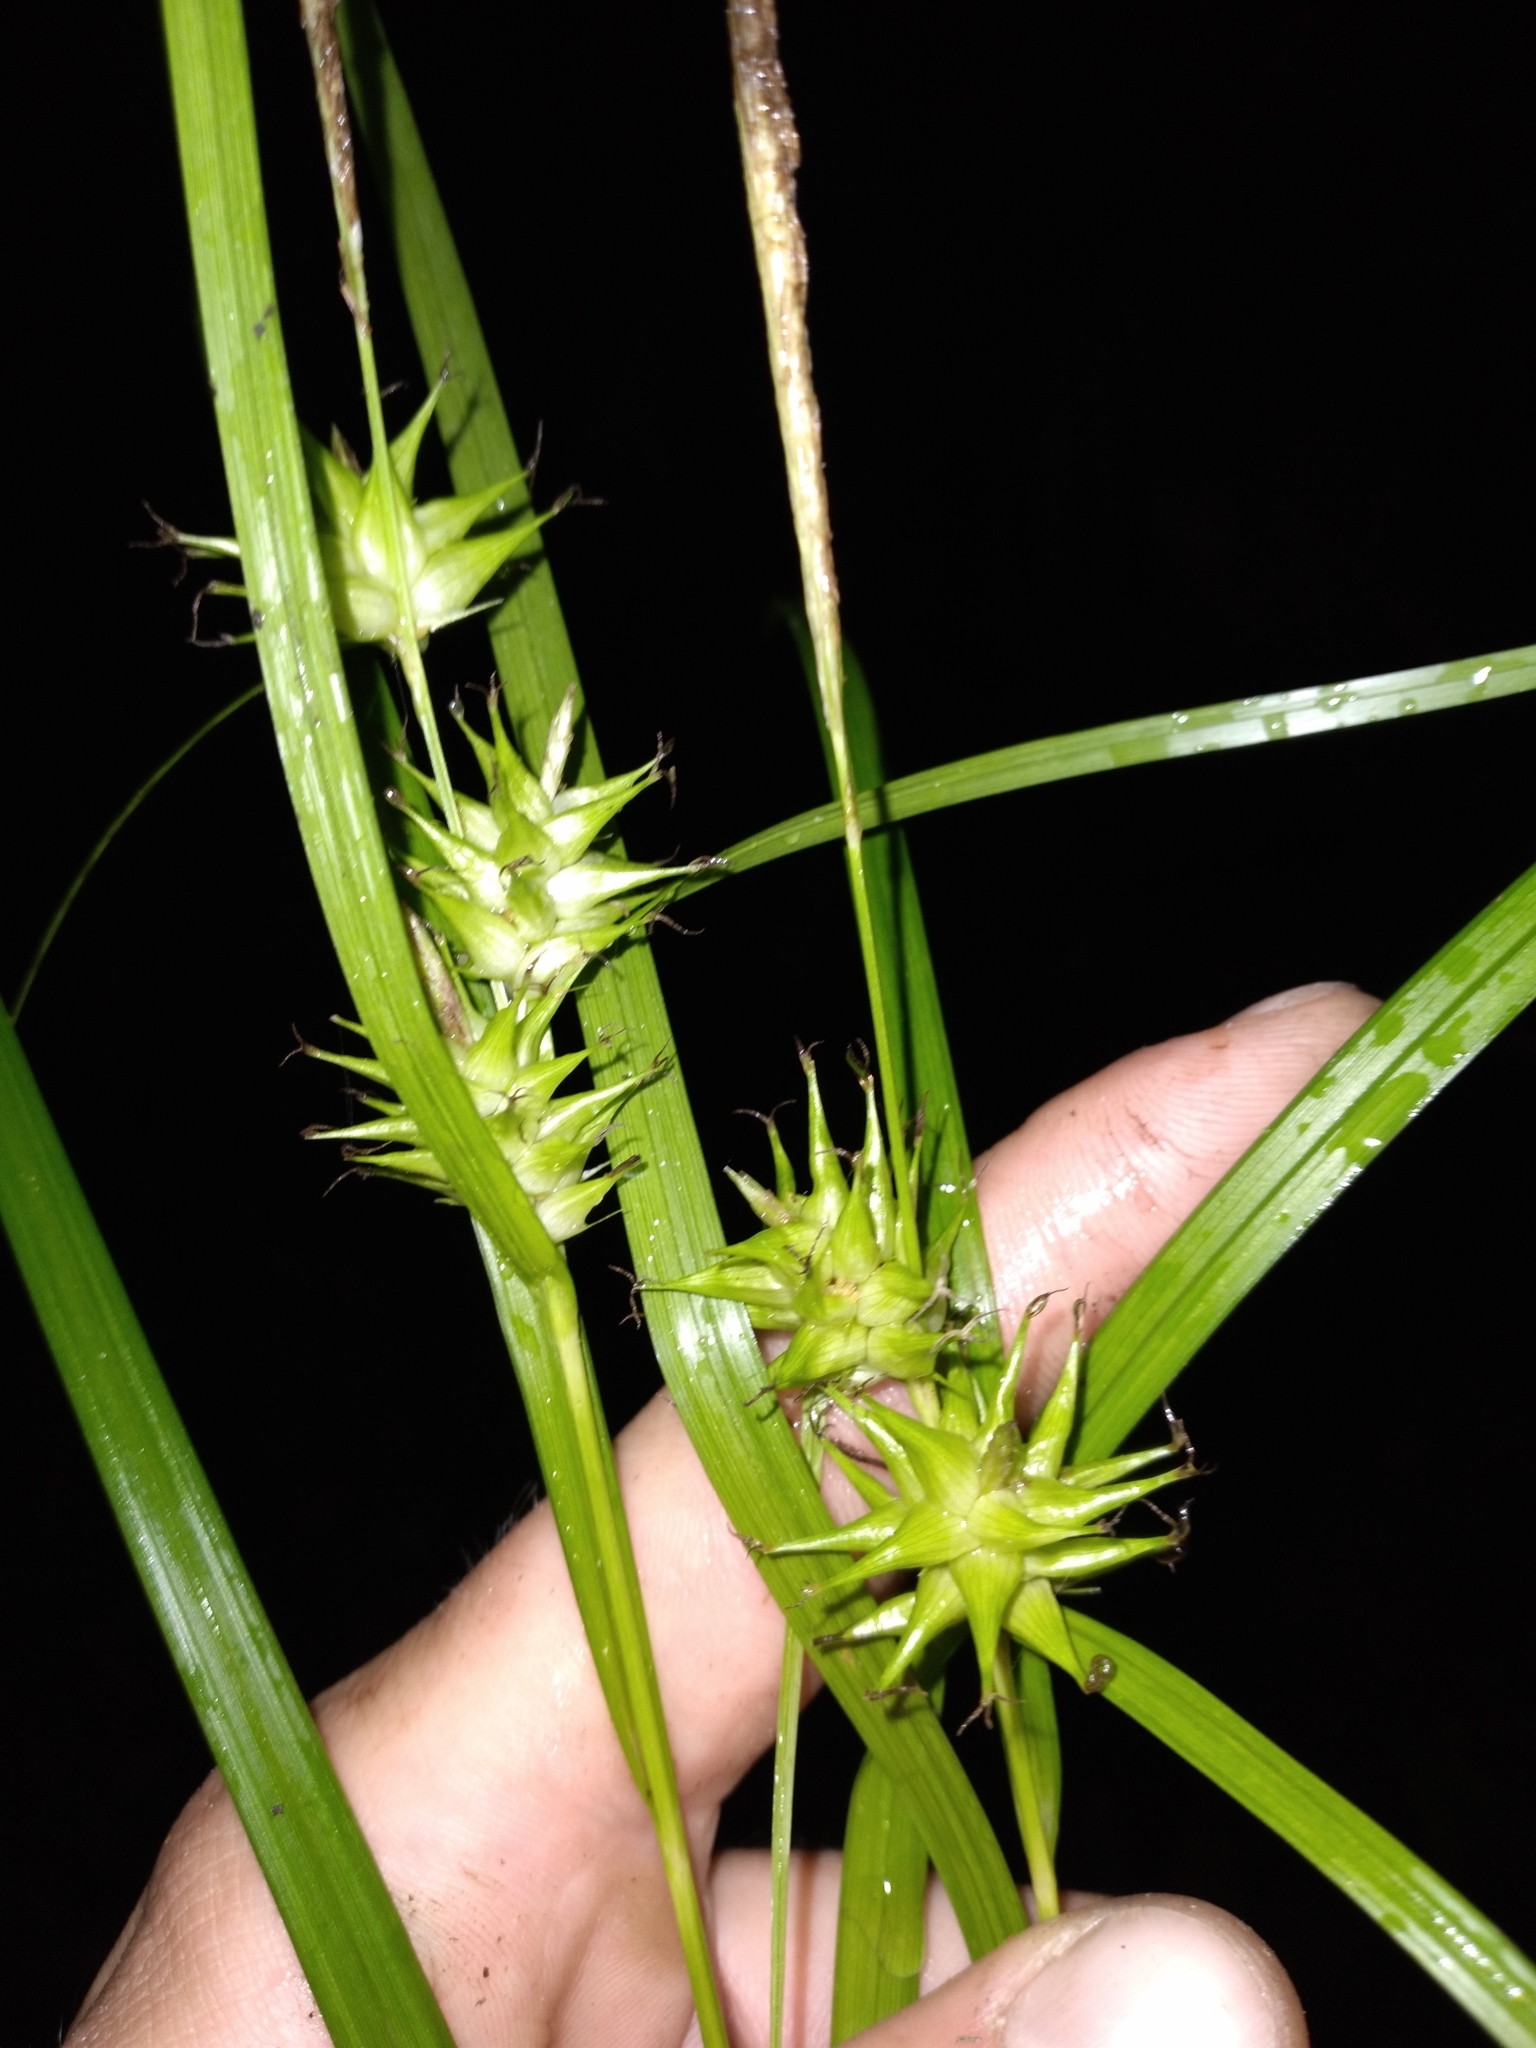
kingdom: Plantae
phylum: Tracheophyta
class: Liliopsida
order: Poales
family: Cyperaceae
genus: Carex
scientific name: Carex intumescens
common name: Greater bladder sedge
